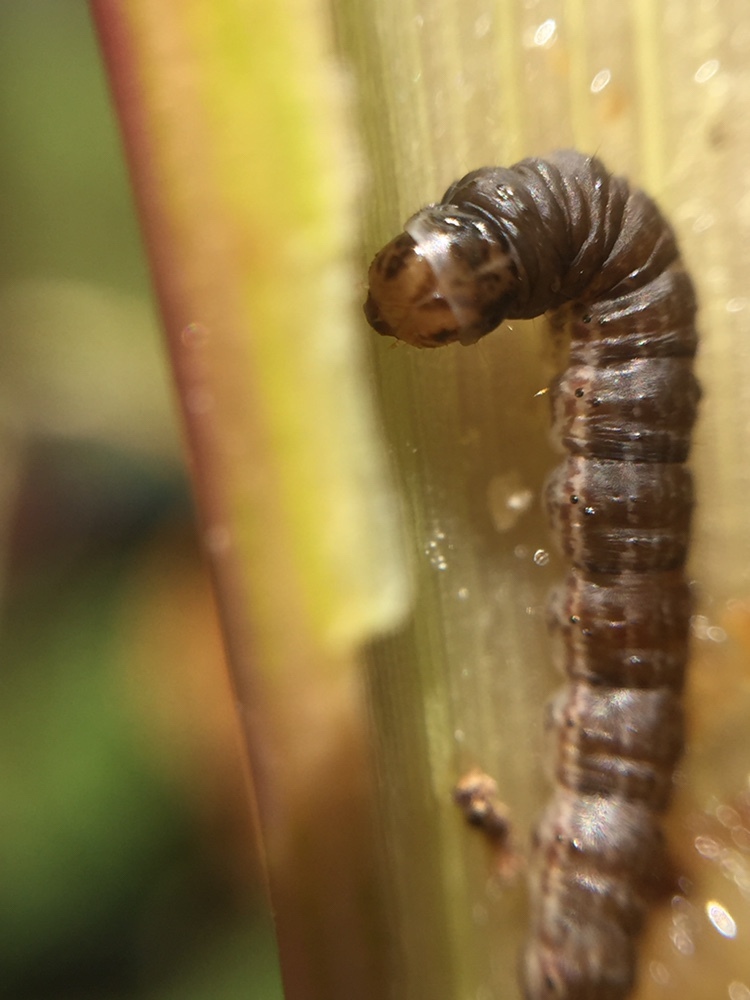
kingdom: Animalia
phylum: Arthropoda
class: Insecta
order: Lepidoptera
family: Pyralidae
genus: Macrorrhinia
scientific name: Macrorrhinia endonephele
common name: Alligator weed stemborer moth
